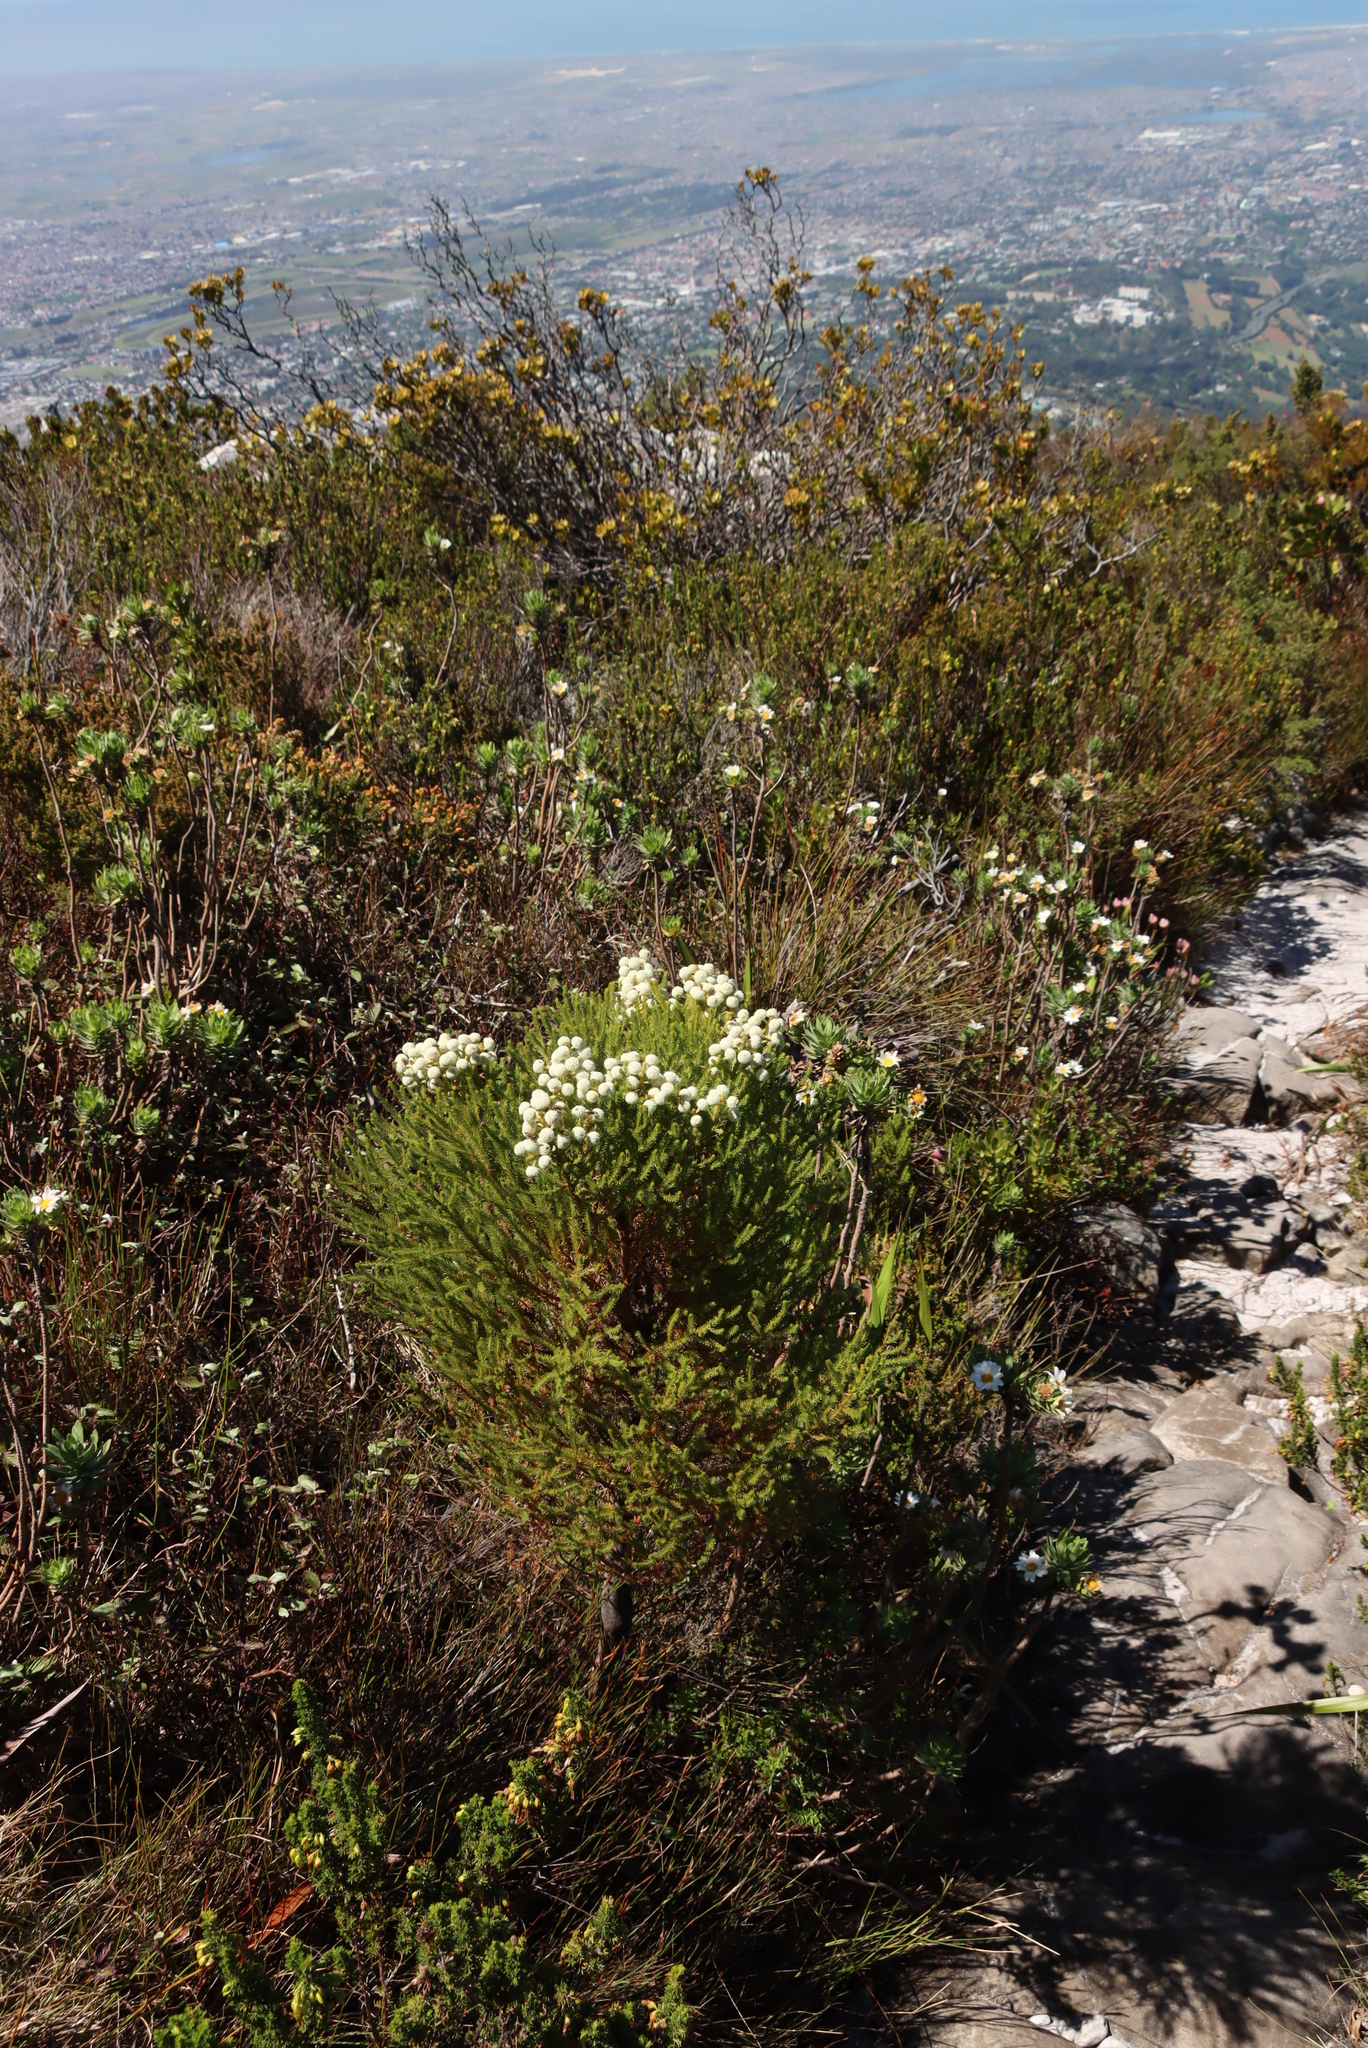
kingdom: Plantae
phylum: Tracheophyta
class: Magnoliopsida
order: Bruniales
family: Bruniaceae
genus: Berzelia
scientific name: Berzelia lanuginosa
